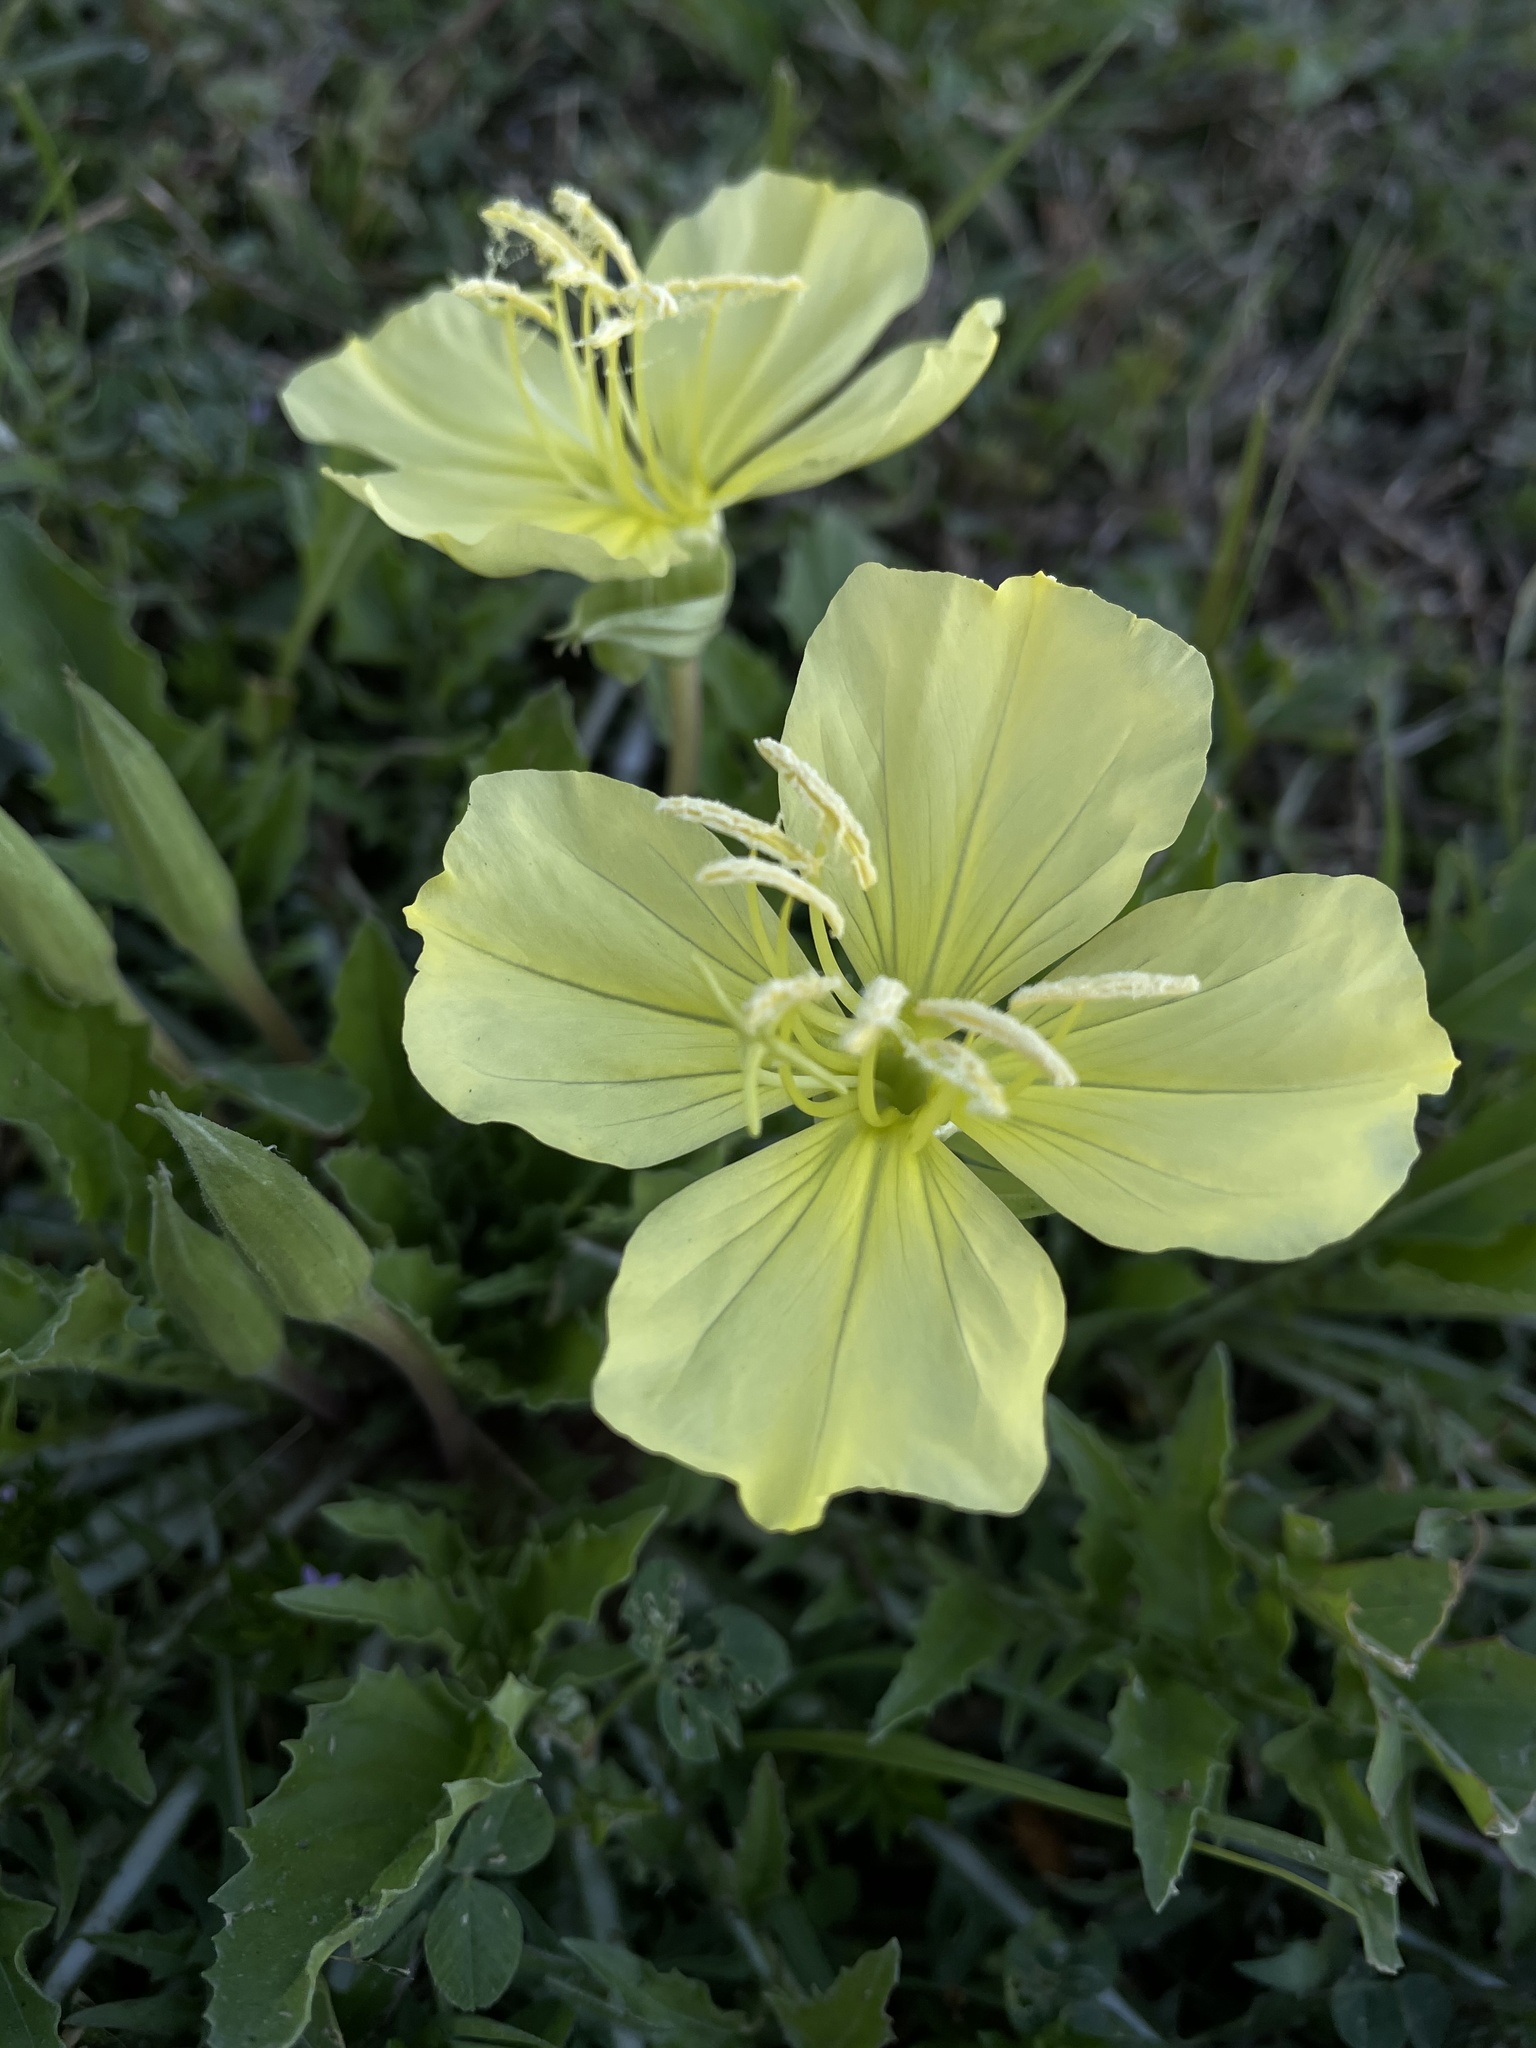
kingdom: Plantae
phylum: Tracheophyta
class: Magnoliopsida
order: Myrtales
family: Onagraceae
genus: Oenothera
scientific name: Oenothera triloba
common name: Sessile evening-primrose
